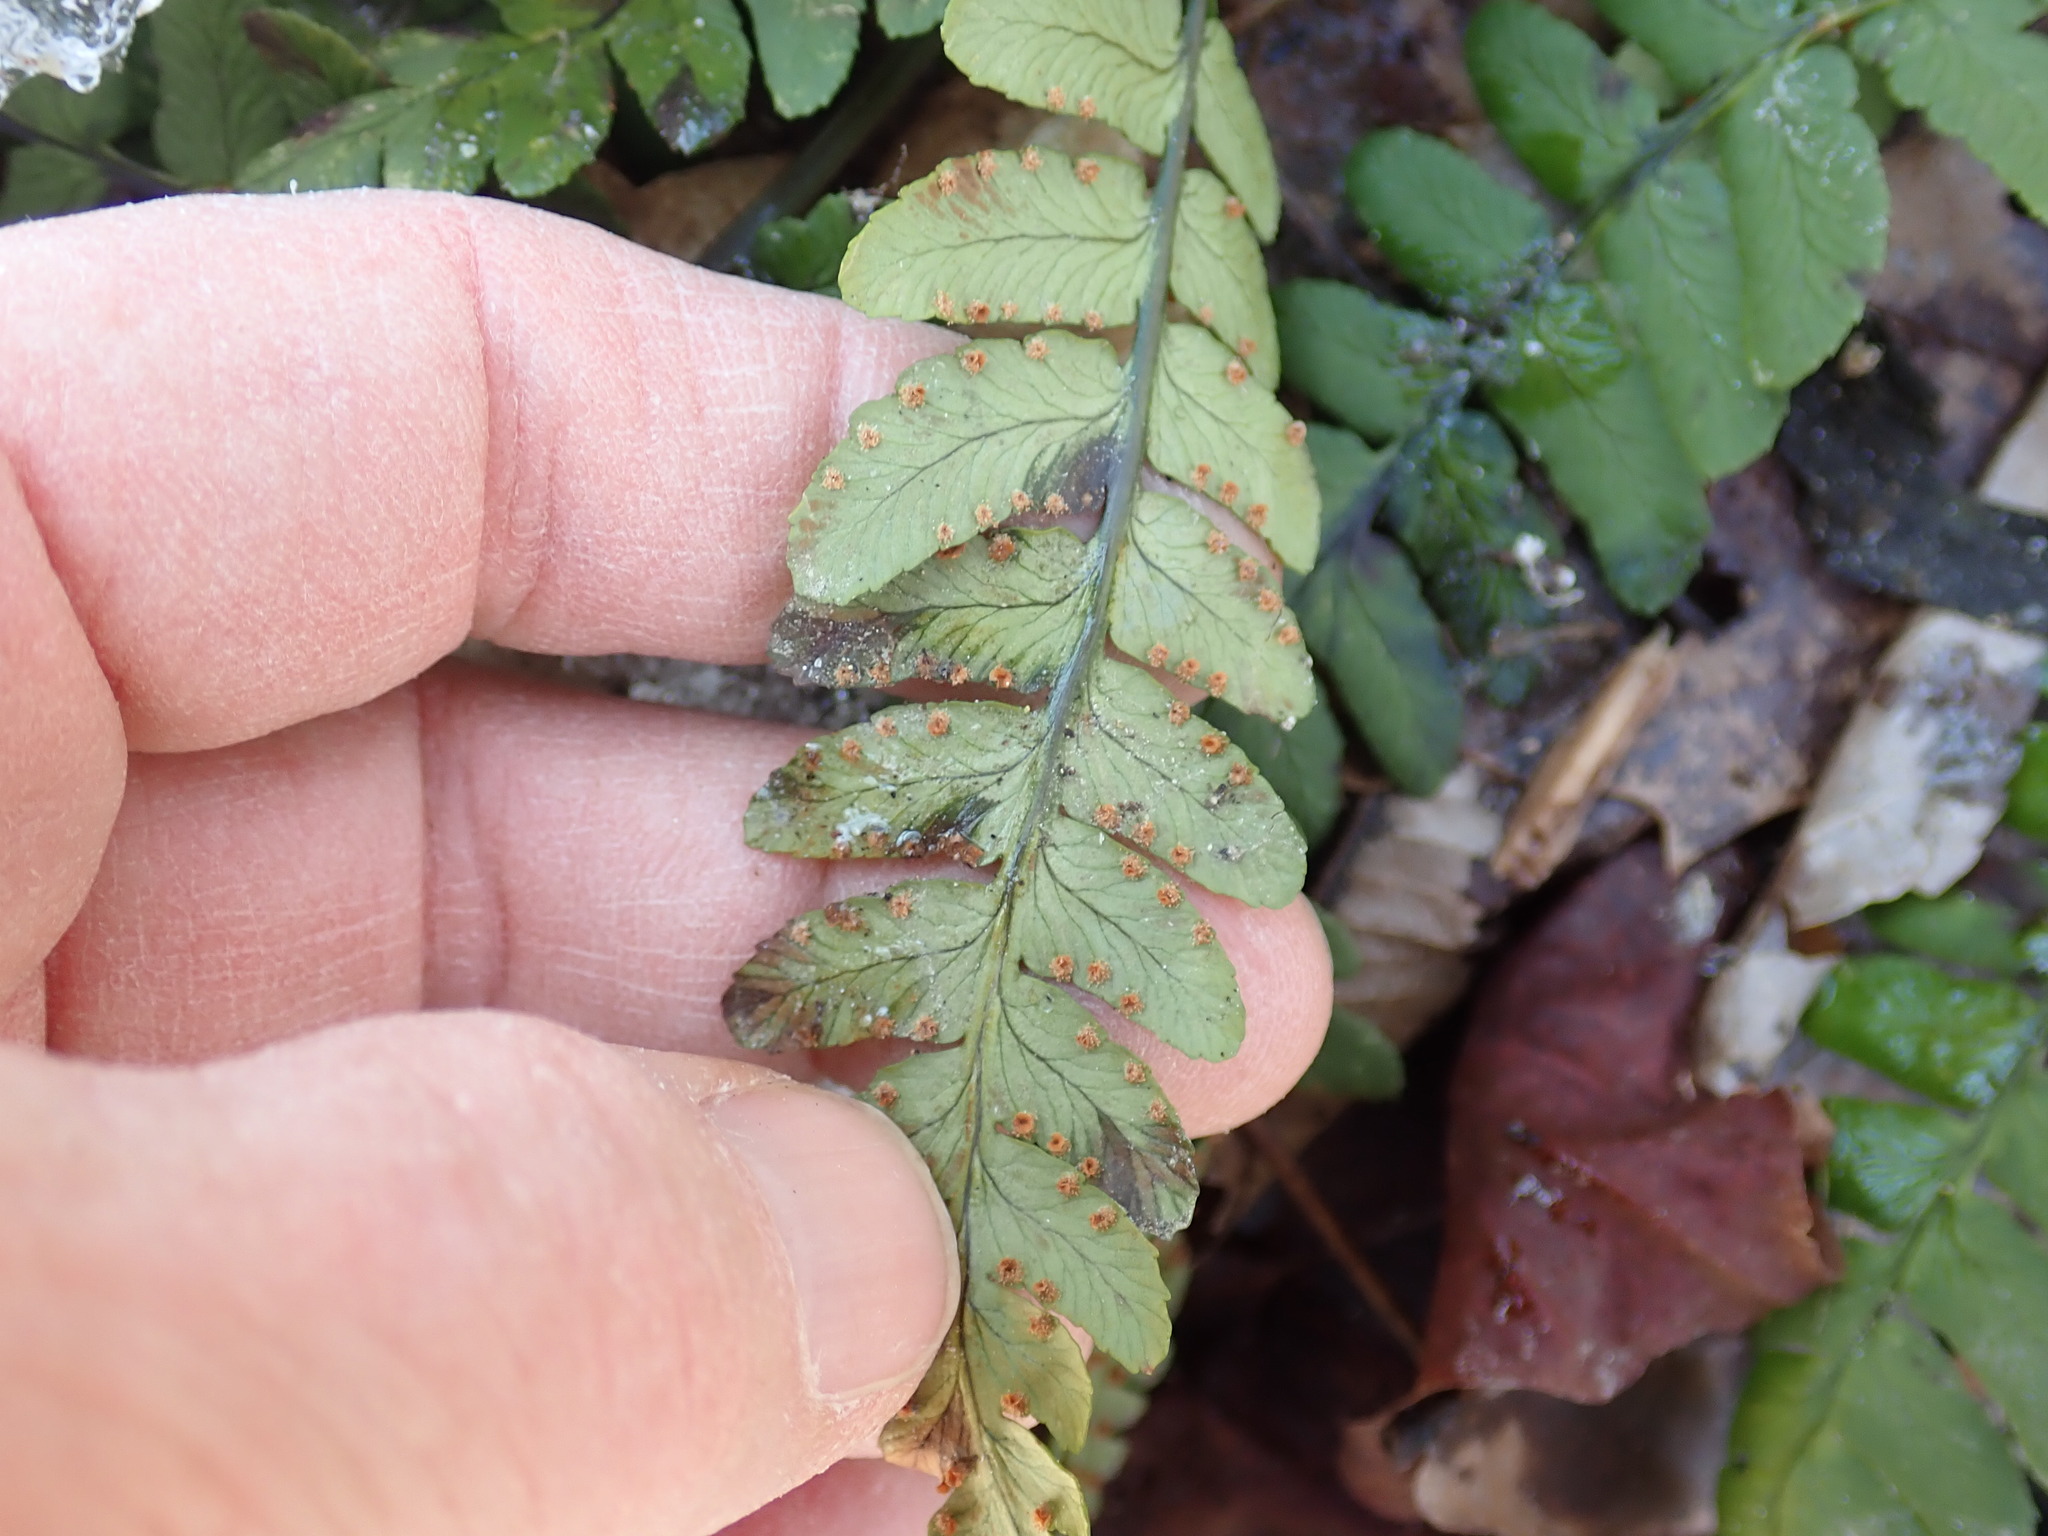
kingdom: Plantae
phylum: Tracheophyta
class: Polypodiopsida
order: Polypodiales
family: Dryopteridaceae
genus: Dryopteris
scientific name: Dryopteris marginalis
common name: Marginal wood fern
